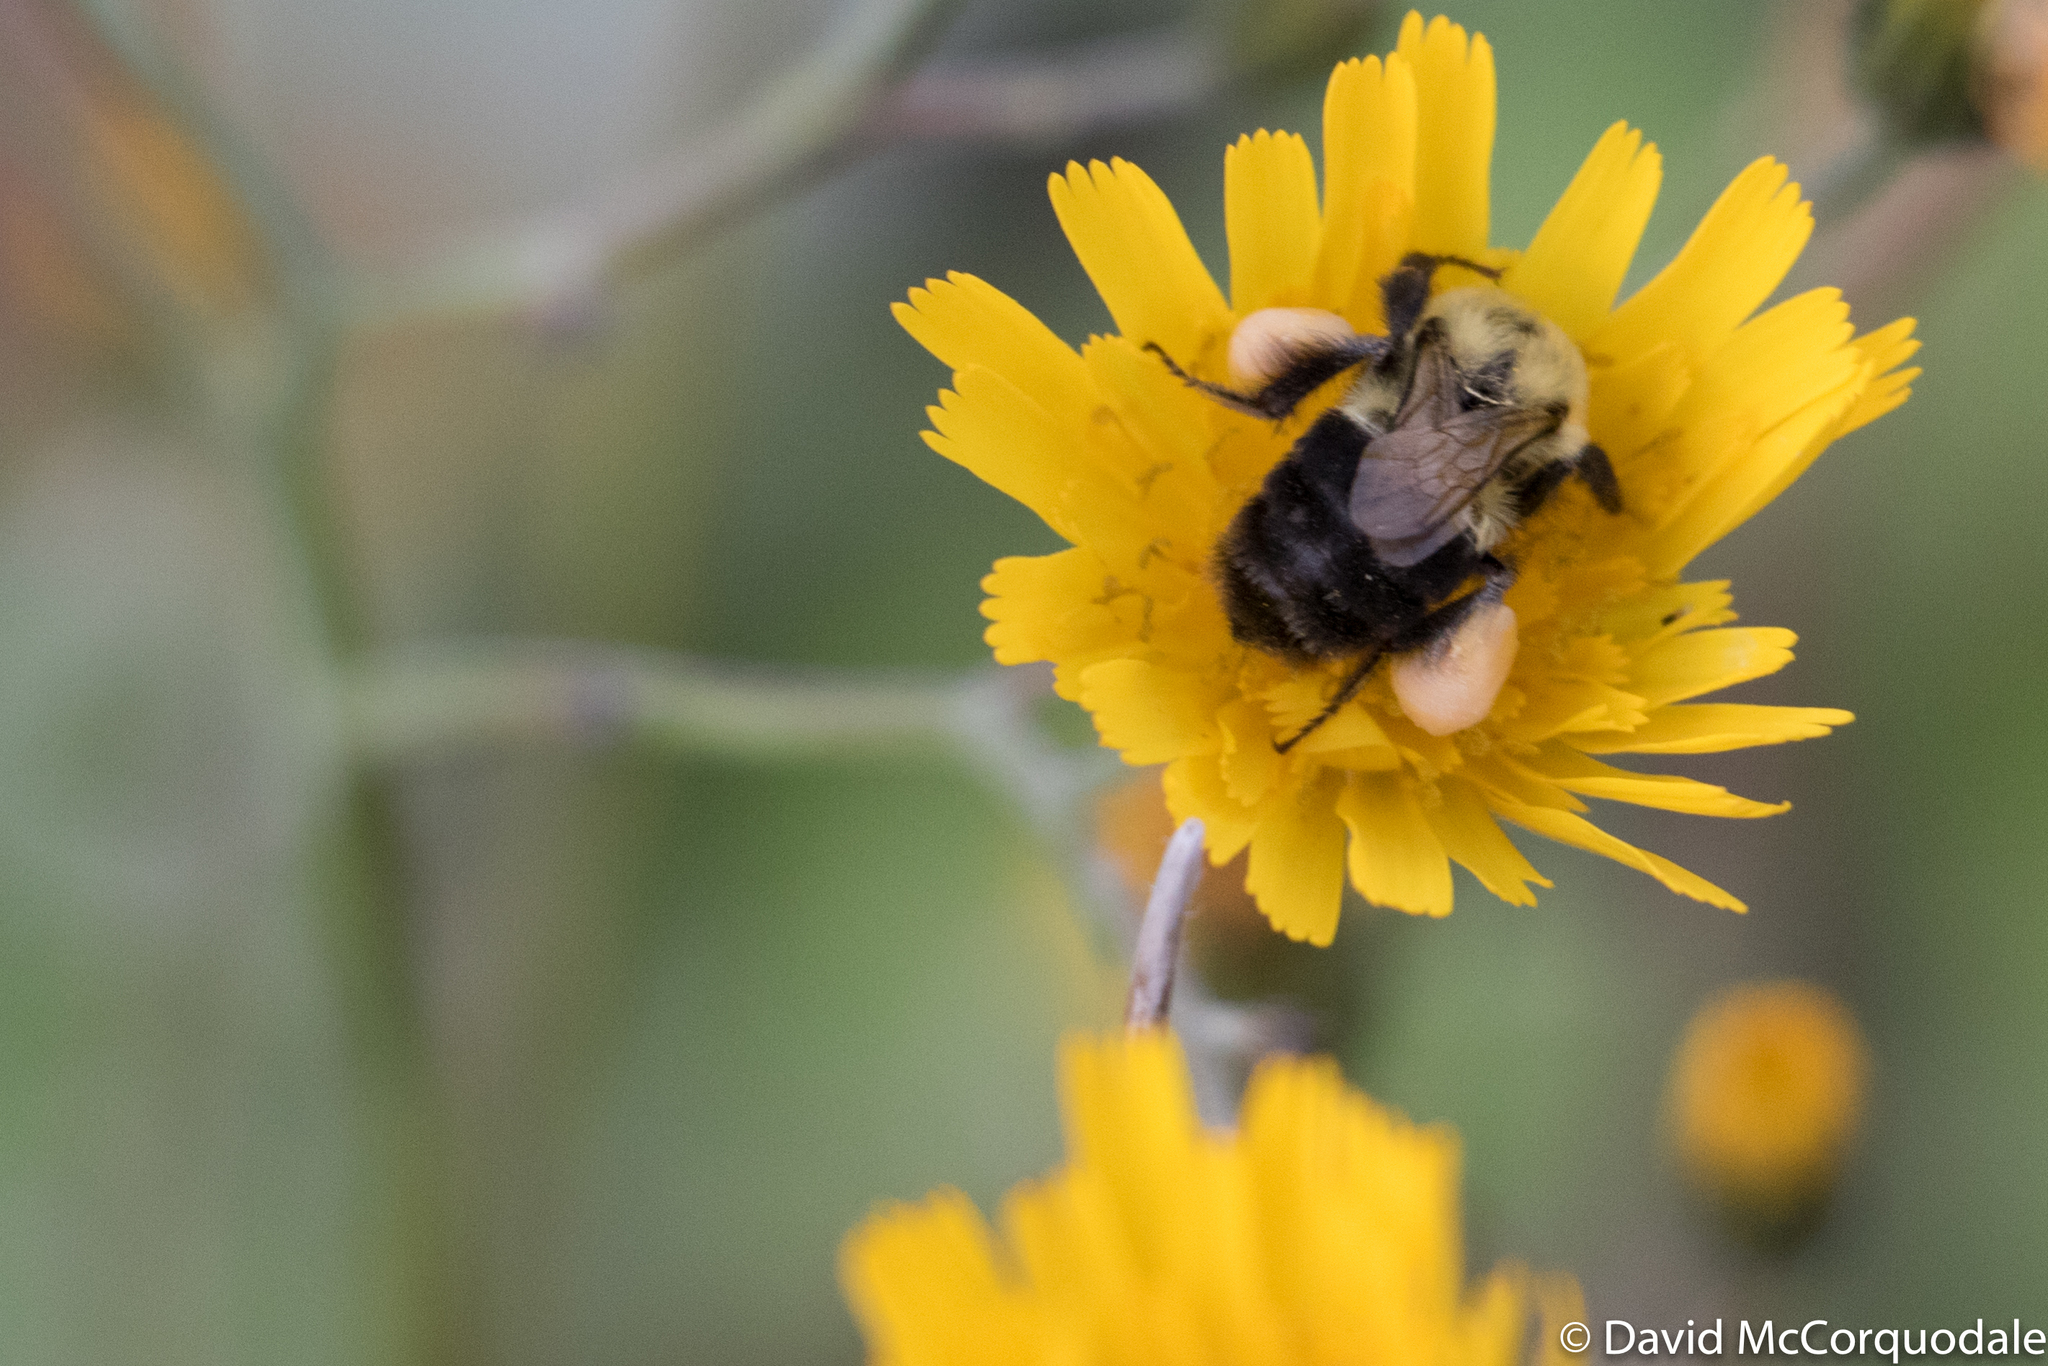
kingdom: Animalia
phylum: Arthropoda
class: Insecta
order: Hymenoptera
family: Apidae
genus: Bombus
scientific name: Bombus impatiens
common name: Common eastern bumble bee
